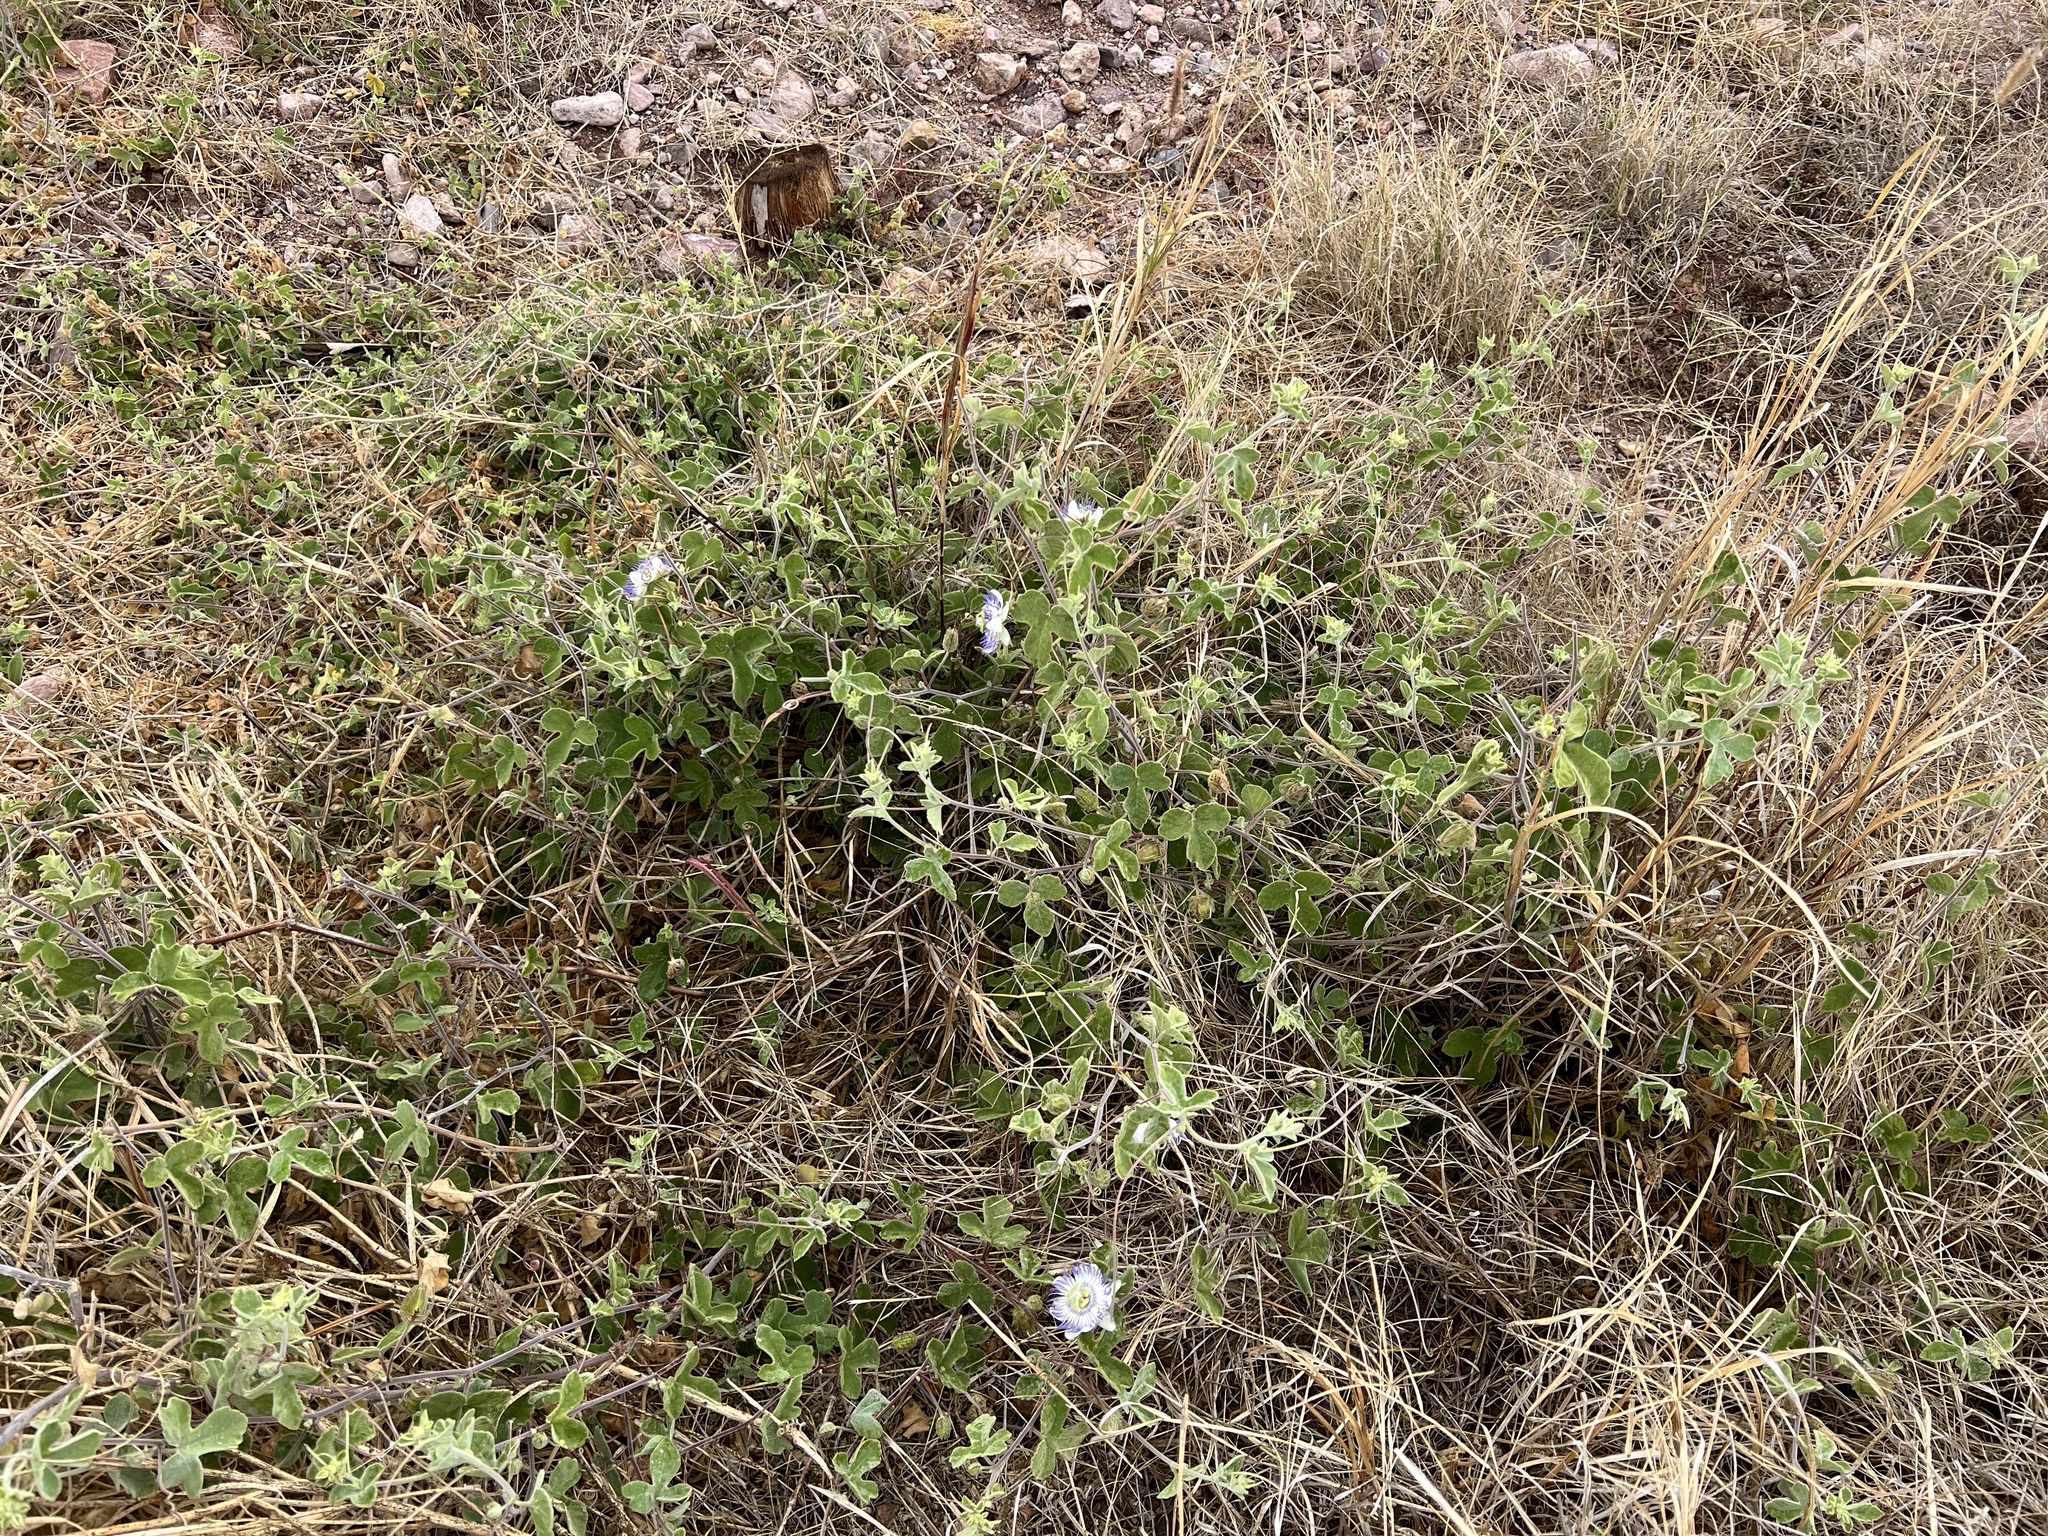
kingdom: Plantae
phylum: Tracheophyta
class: Magnoliopsida
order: Malpighiales
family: Passifloraceae
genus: Passiflora
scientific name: Passiflora arida
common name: Desert passionflower
